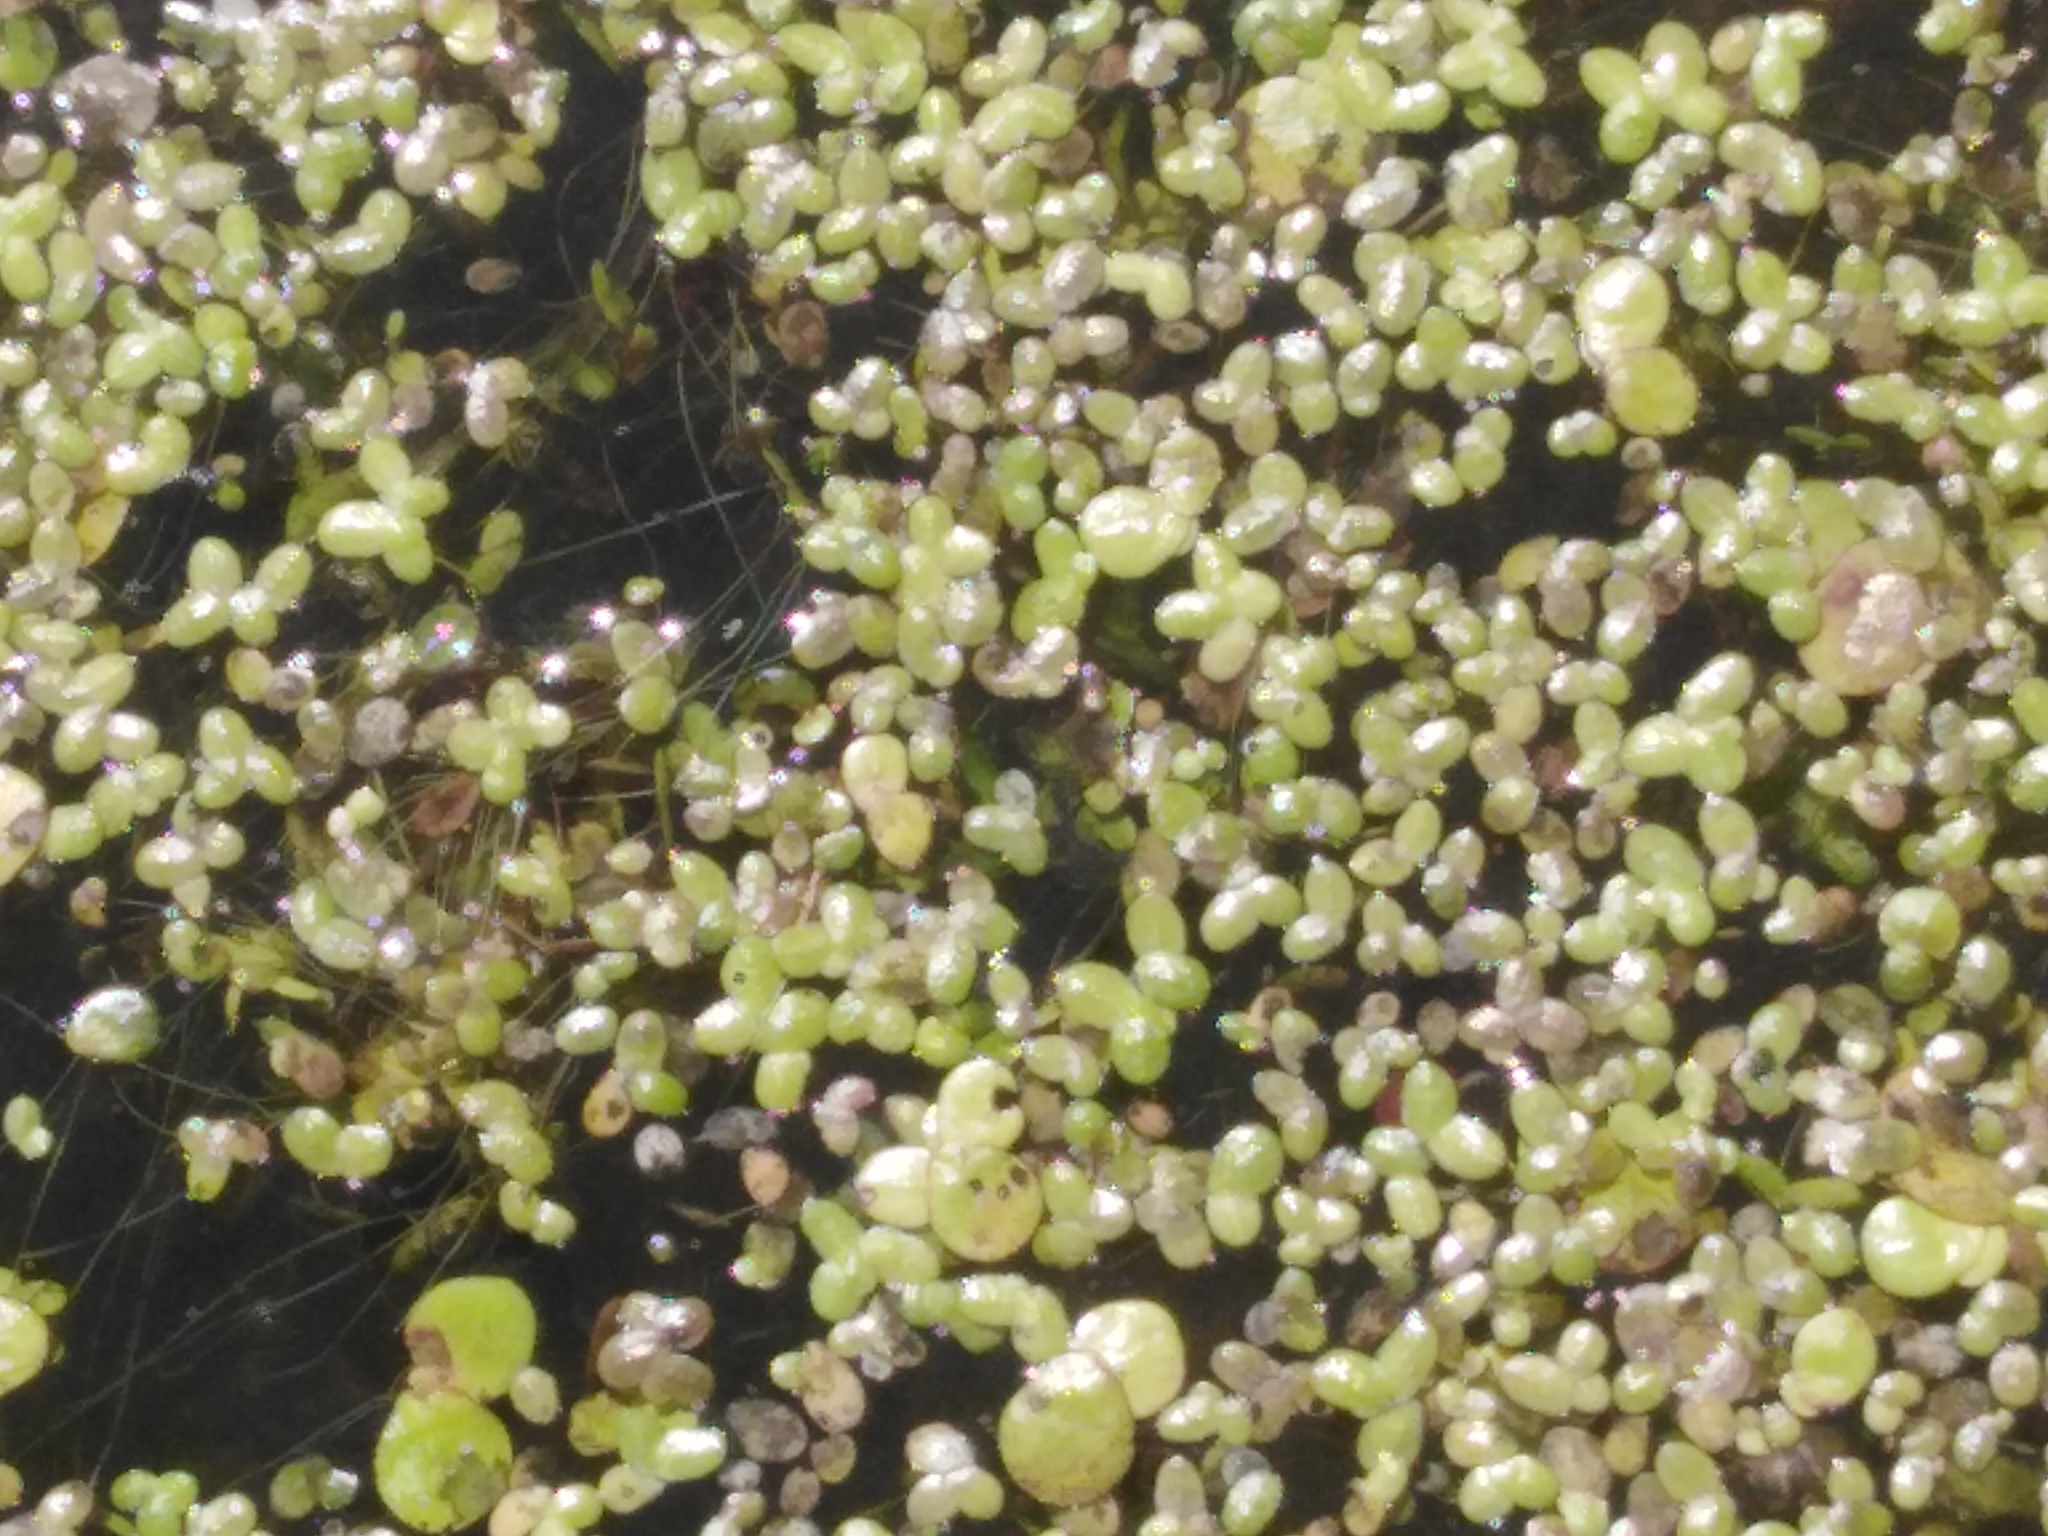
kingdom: Plantae
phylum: Tracheophyta
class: Liliopsida
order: Alismatales
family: Araceae
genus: Lemna
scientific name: Lemna minor
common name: Common duckweed
